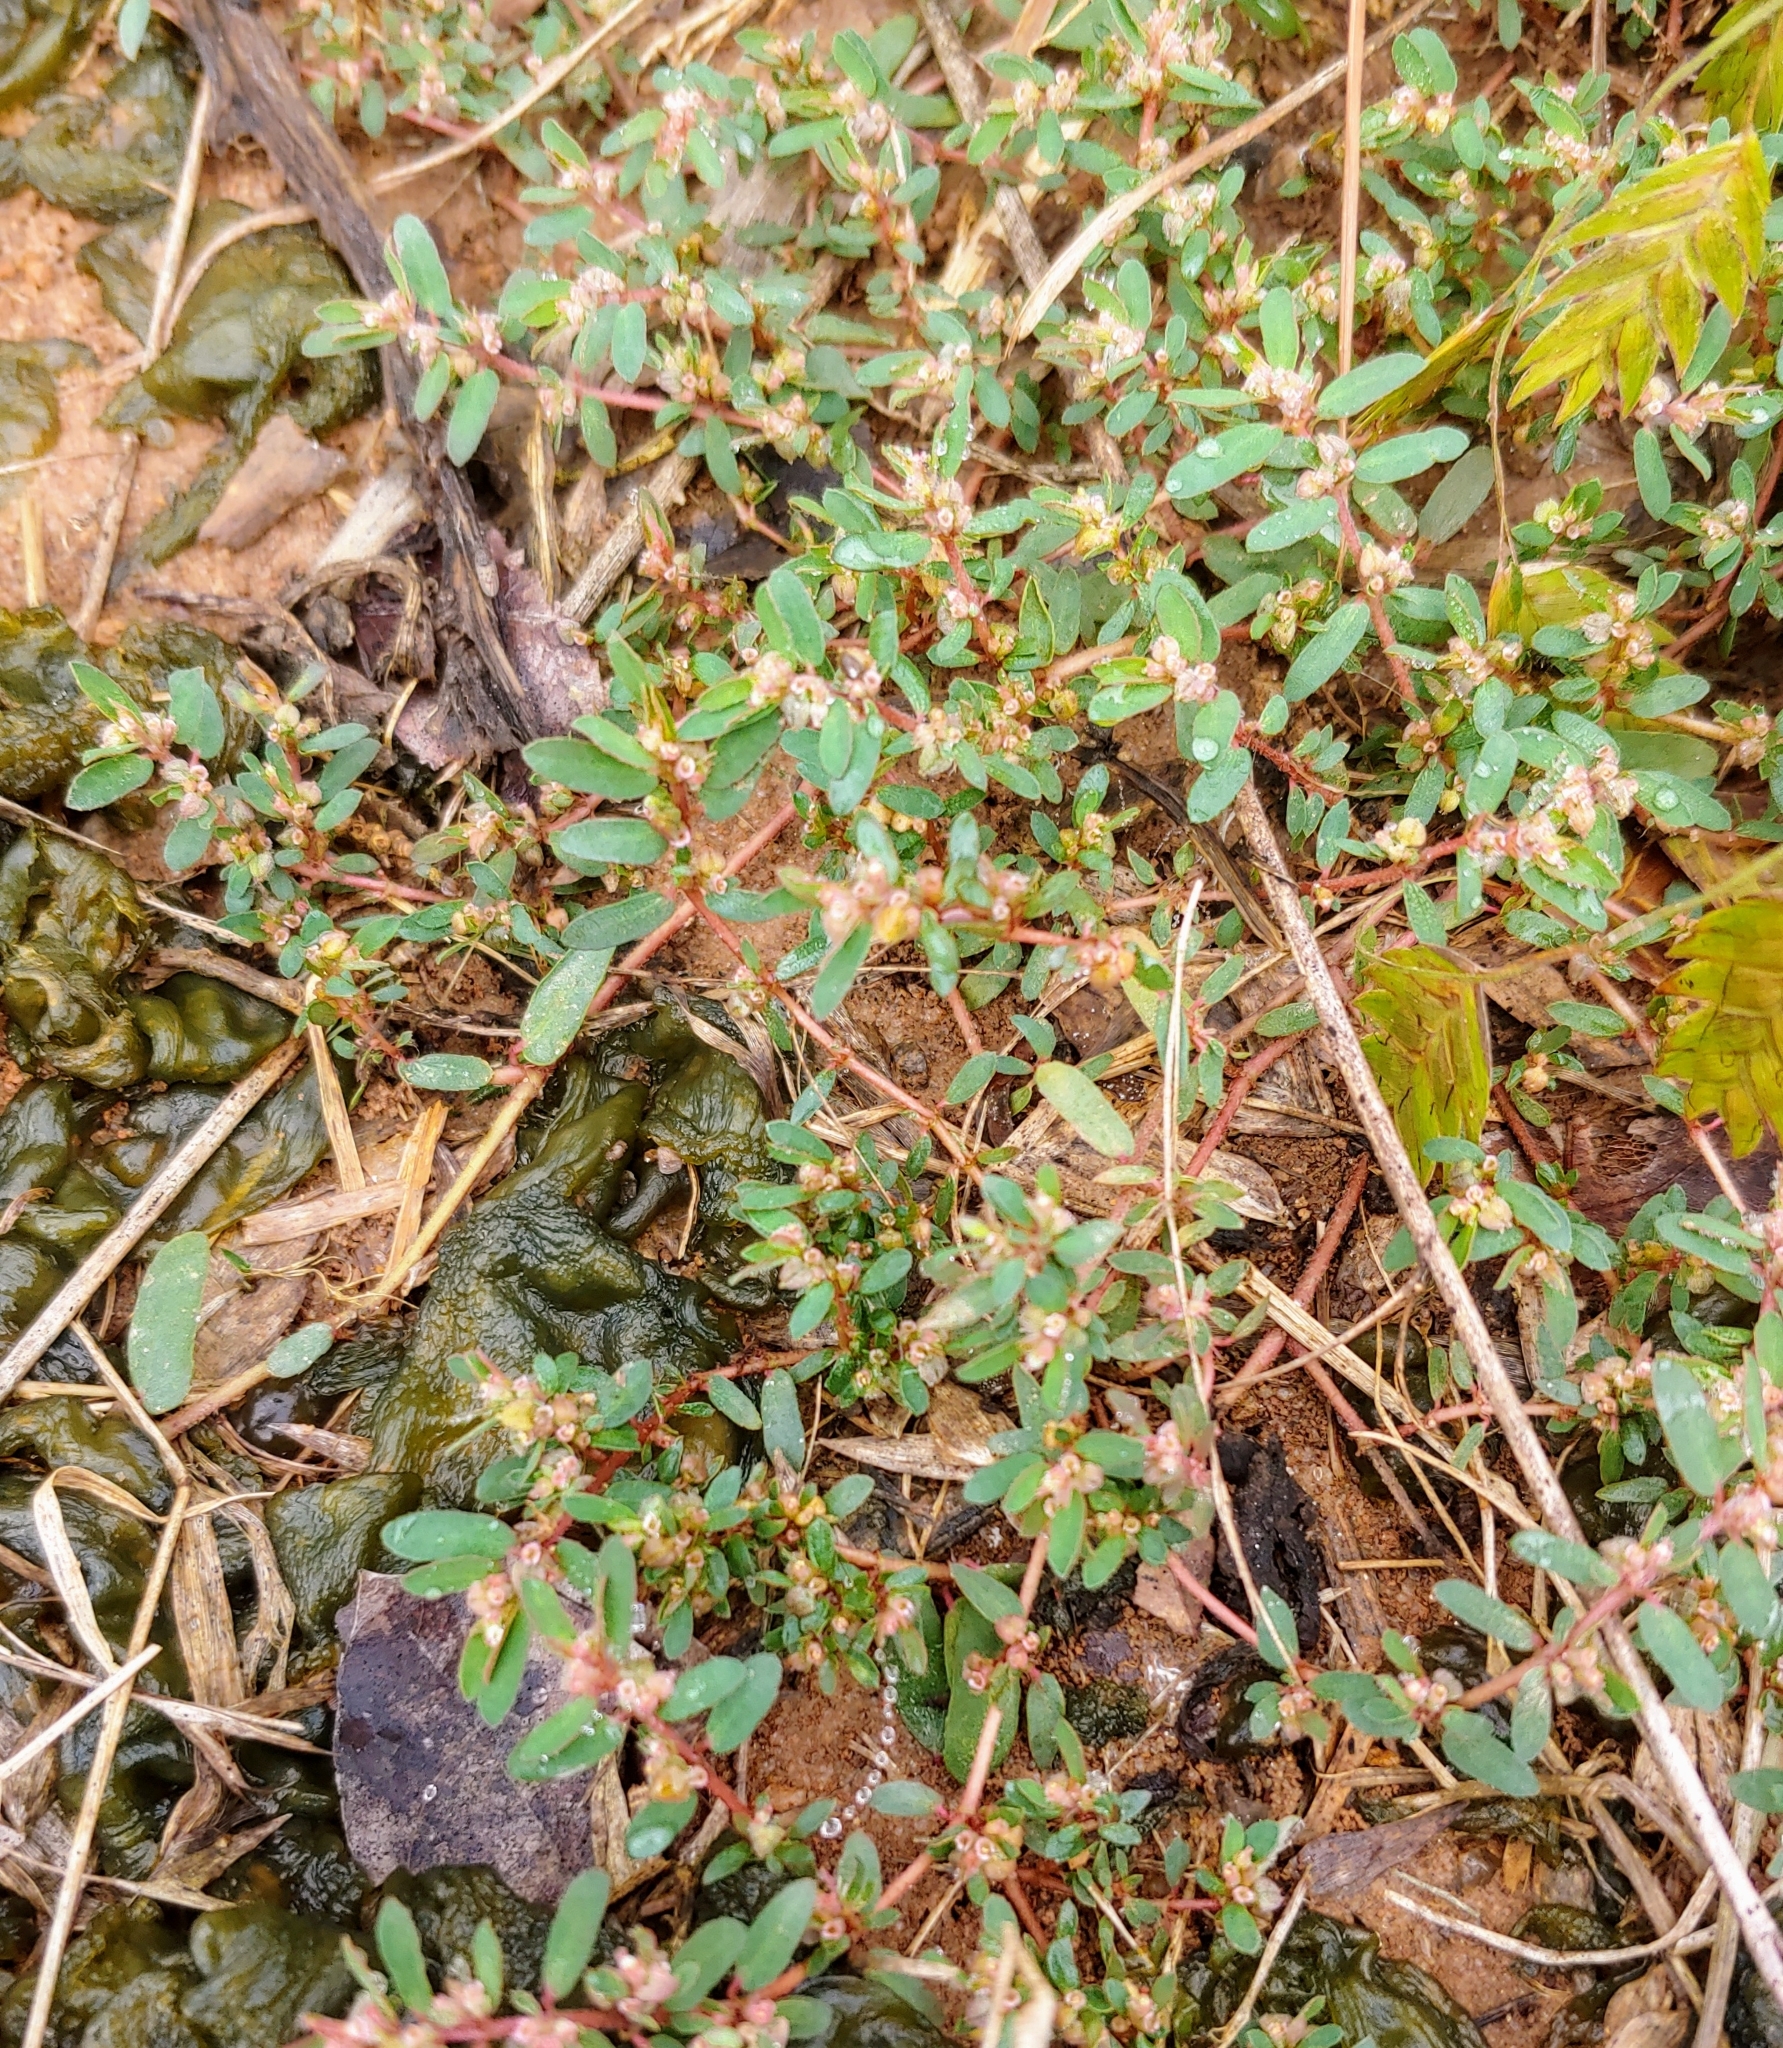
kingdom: Plantae
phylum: Tracheophyta
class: Magnoliopsida
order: Malpighiales
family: Euphorbiaceae
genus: Euphorbia
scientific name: Euphorbia maculata
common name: Spotted spurge
